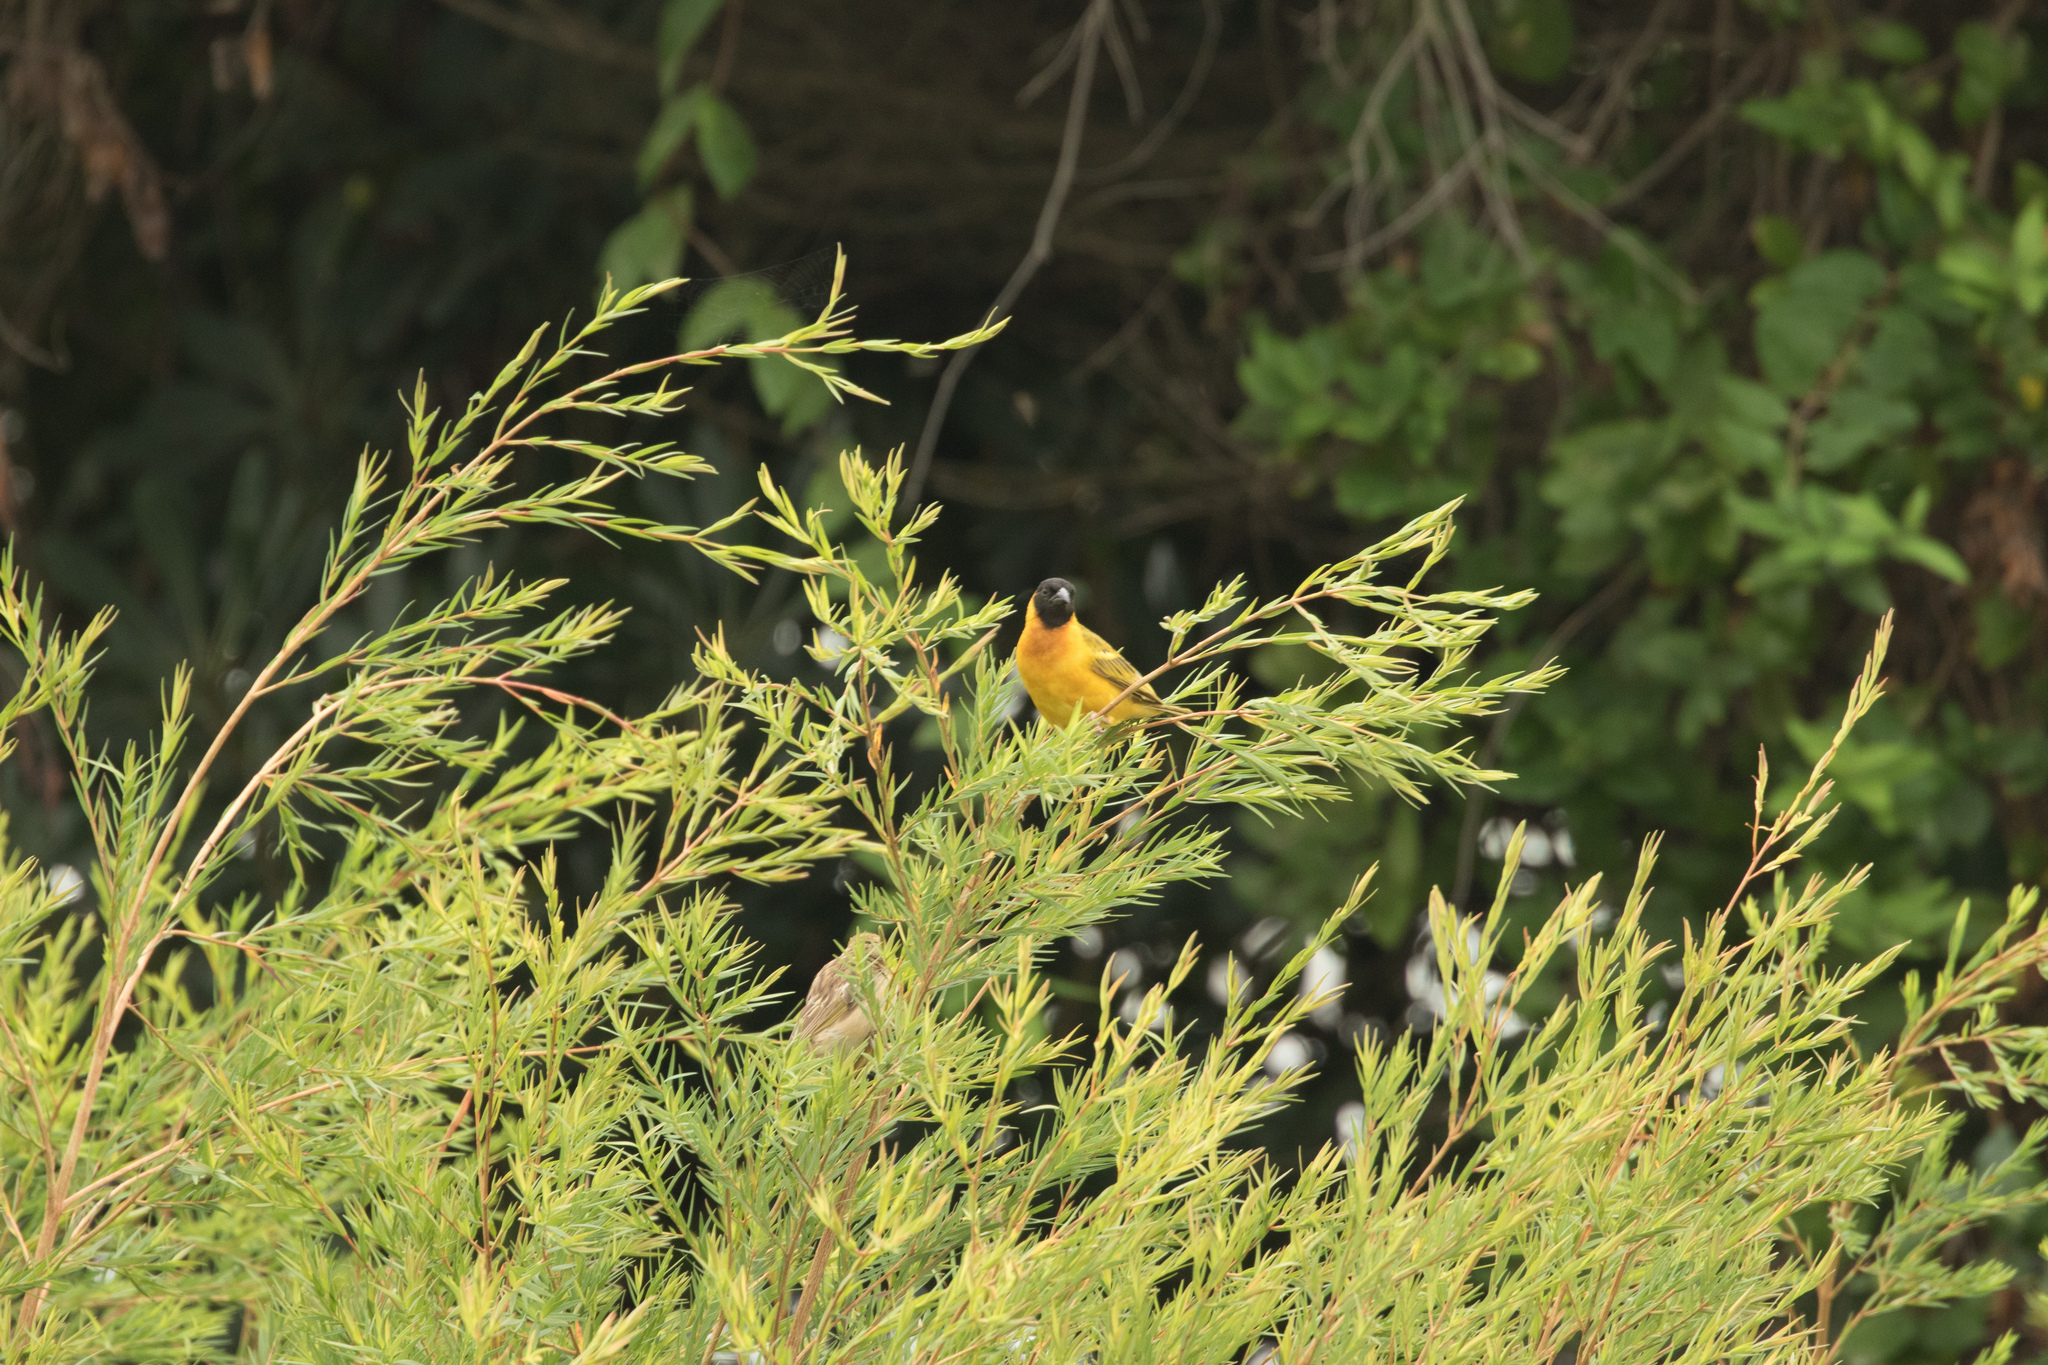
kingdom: Animalia
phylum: Chordata
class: Aves
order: Passeriformes
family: Ploceidae
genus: Ploceus
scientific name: Ploceus melanocephalus
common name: Black-headed weaver
